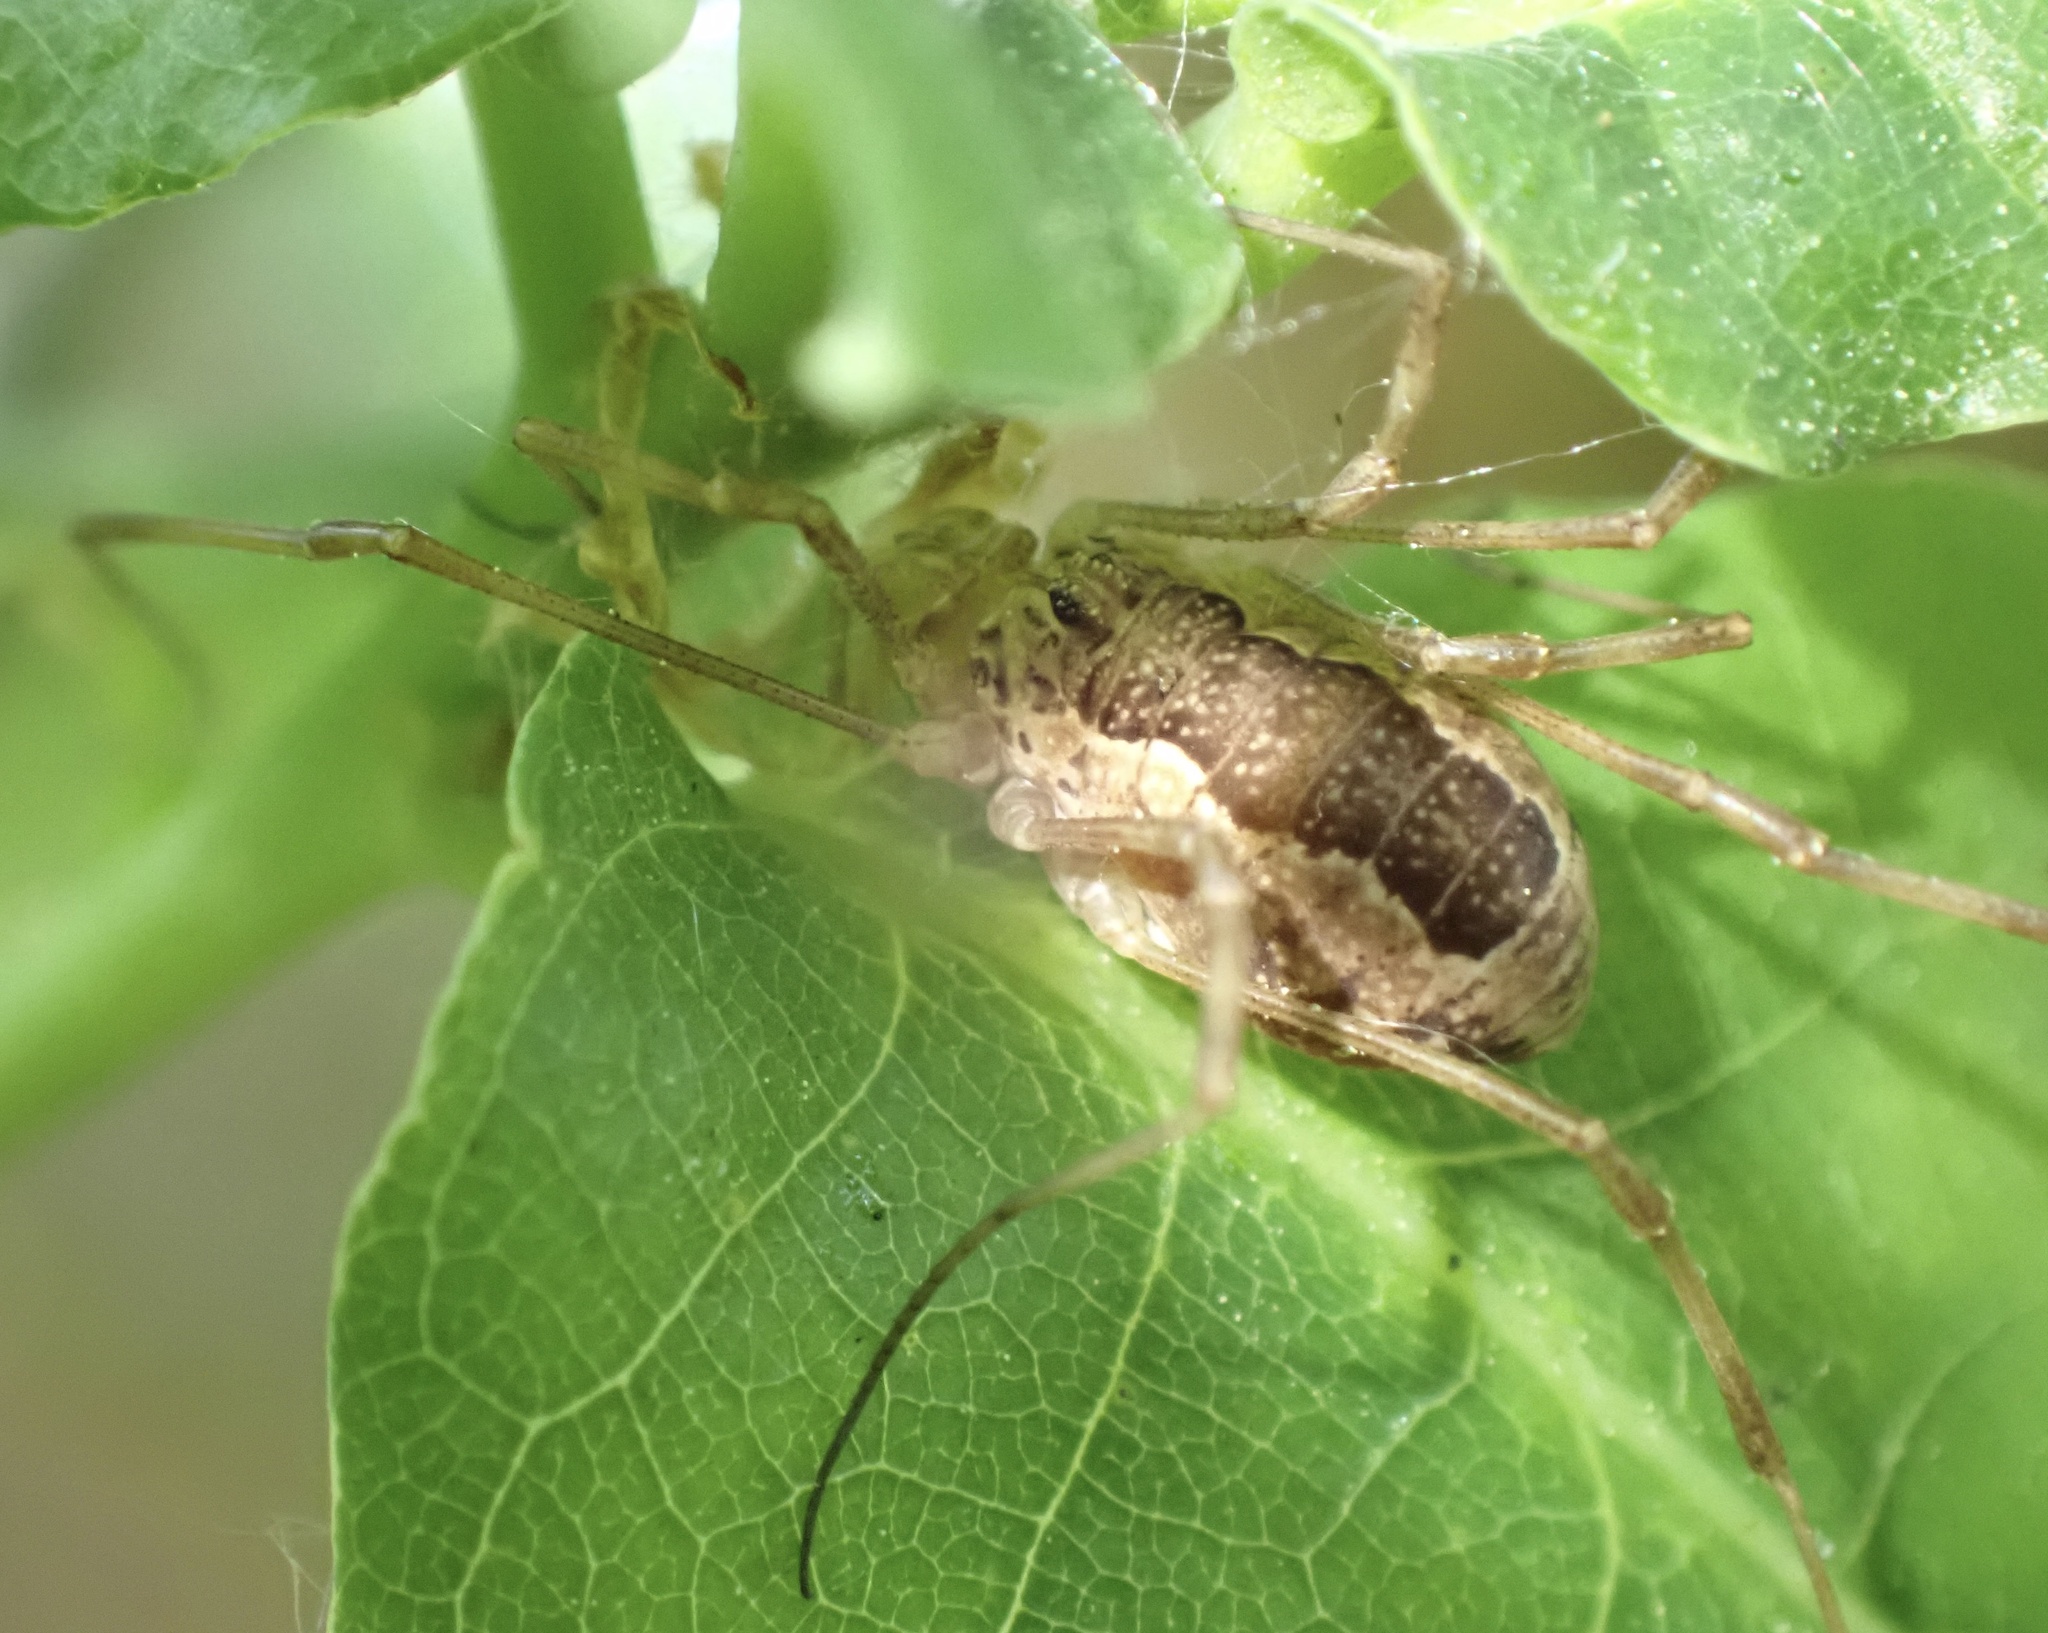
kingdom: Animalia
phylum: Arthropoda
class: Arachnida
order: Opiliones
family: Phalangiidae
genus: Rilaena
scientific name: Rilaena triangularis
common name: Spring harvestman
